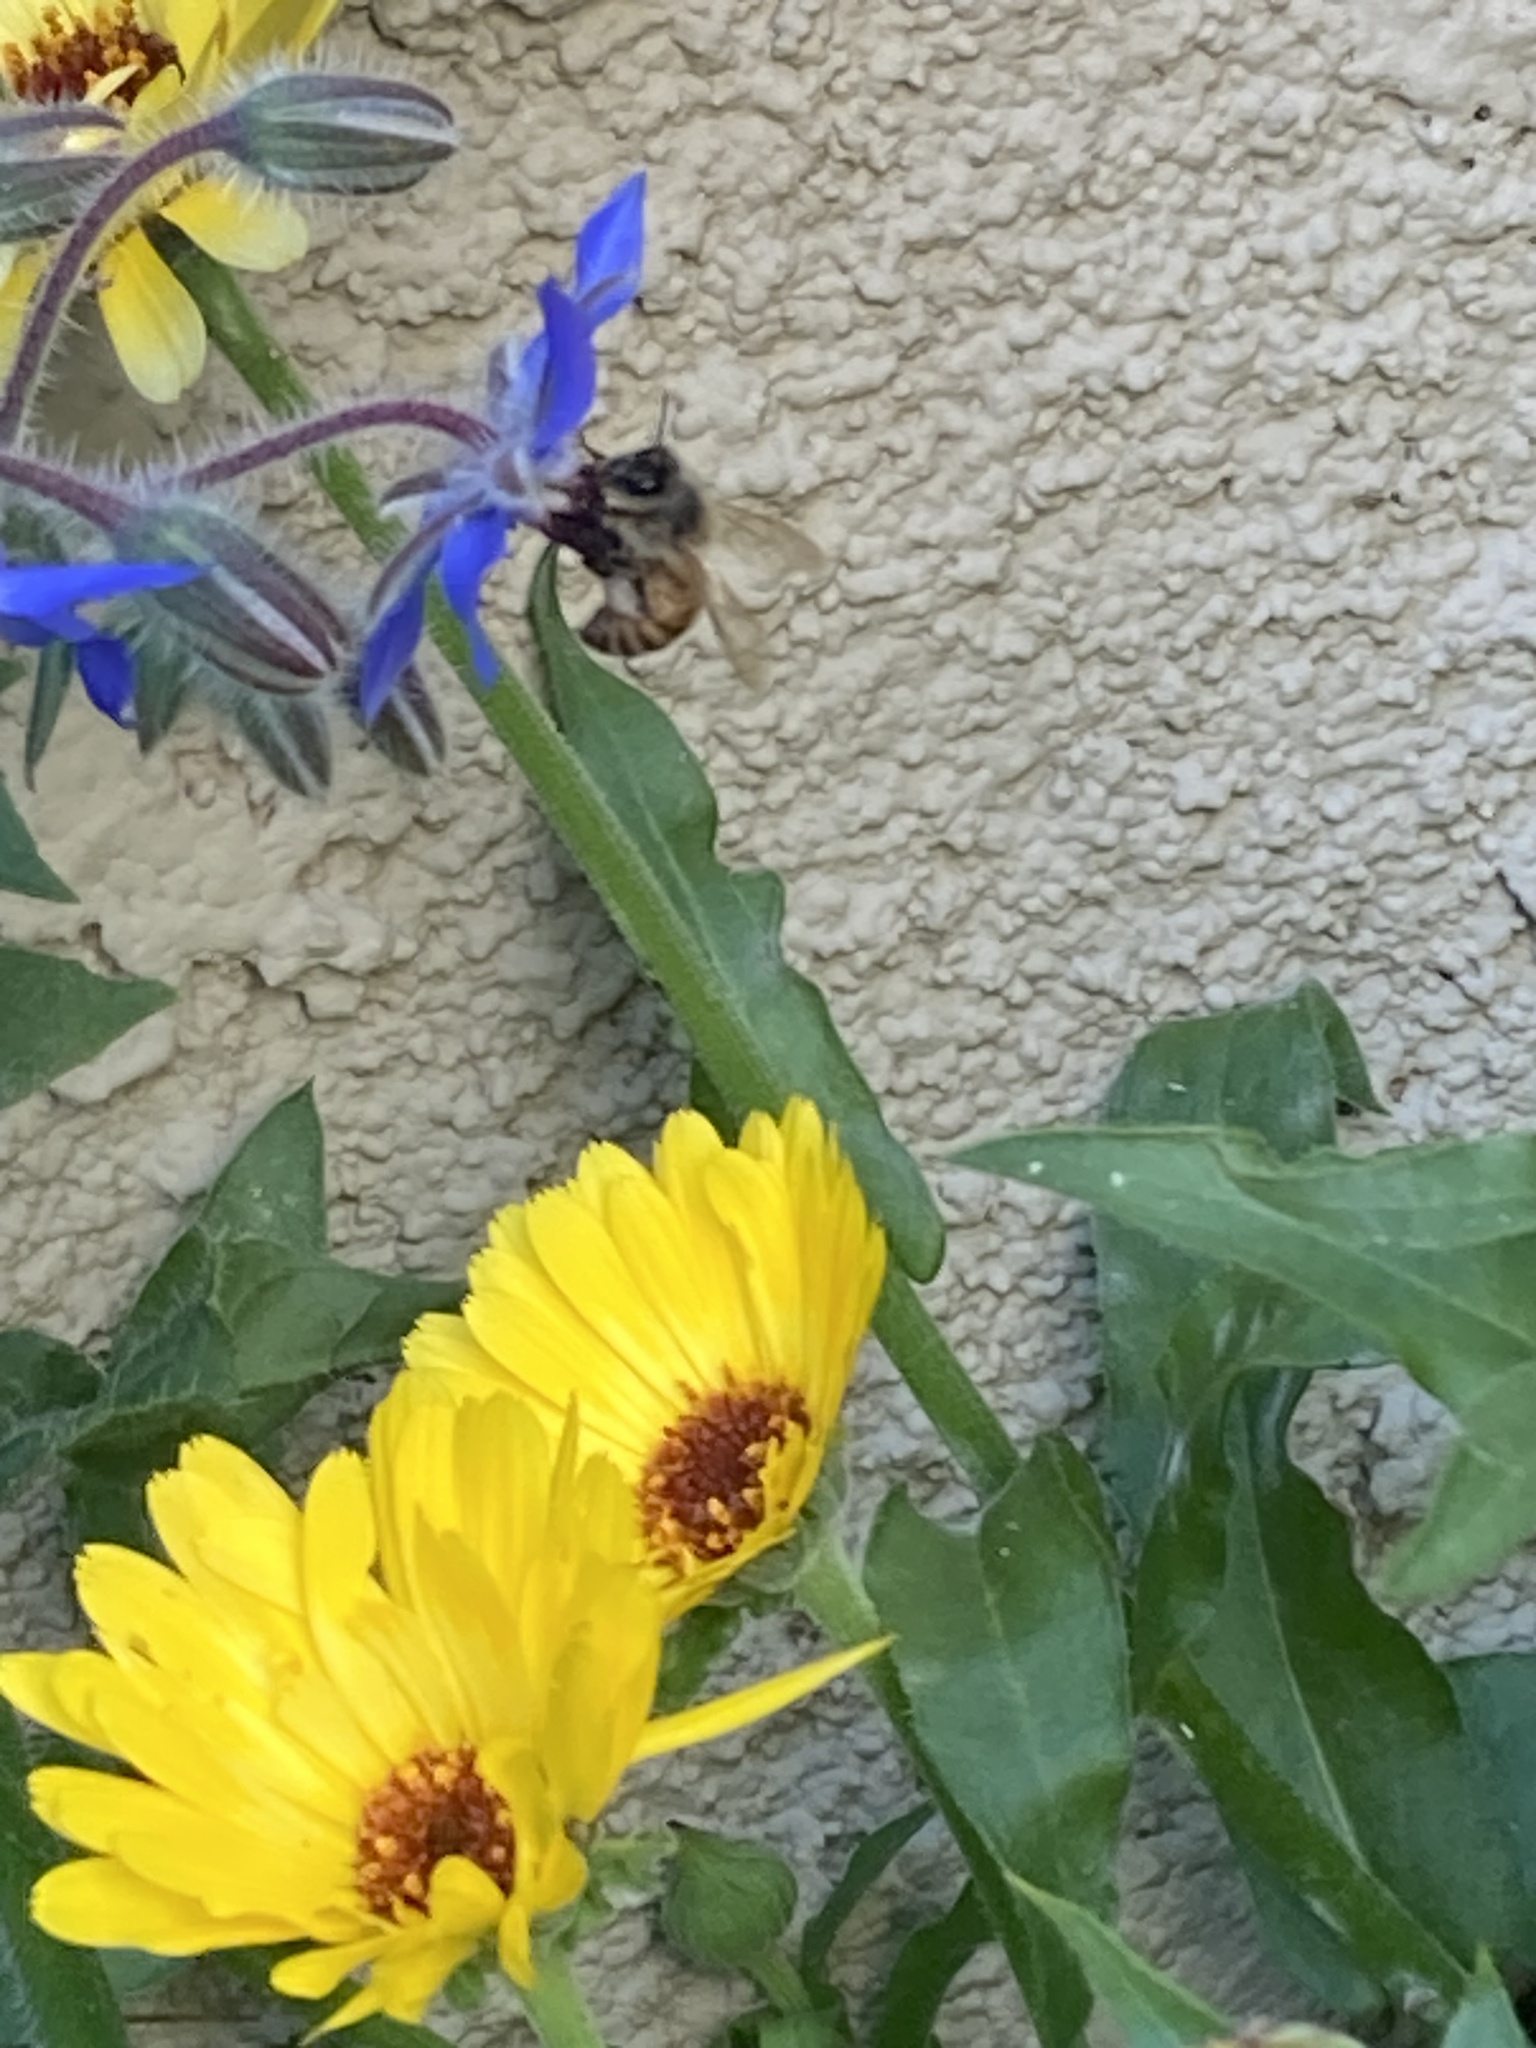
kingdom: Animalia
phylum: Arthropoda
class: Insecta
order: Hymenoptera
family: Apidae
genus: Apis
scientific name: Apis mellifera
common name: Honey bee
